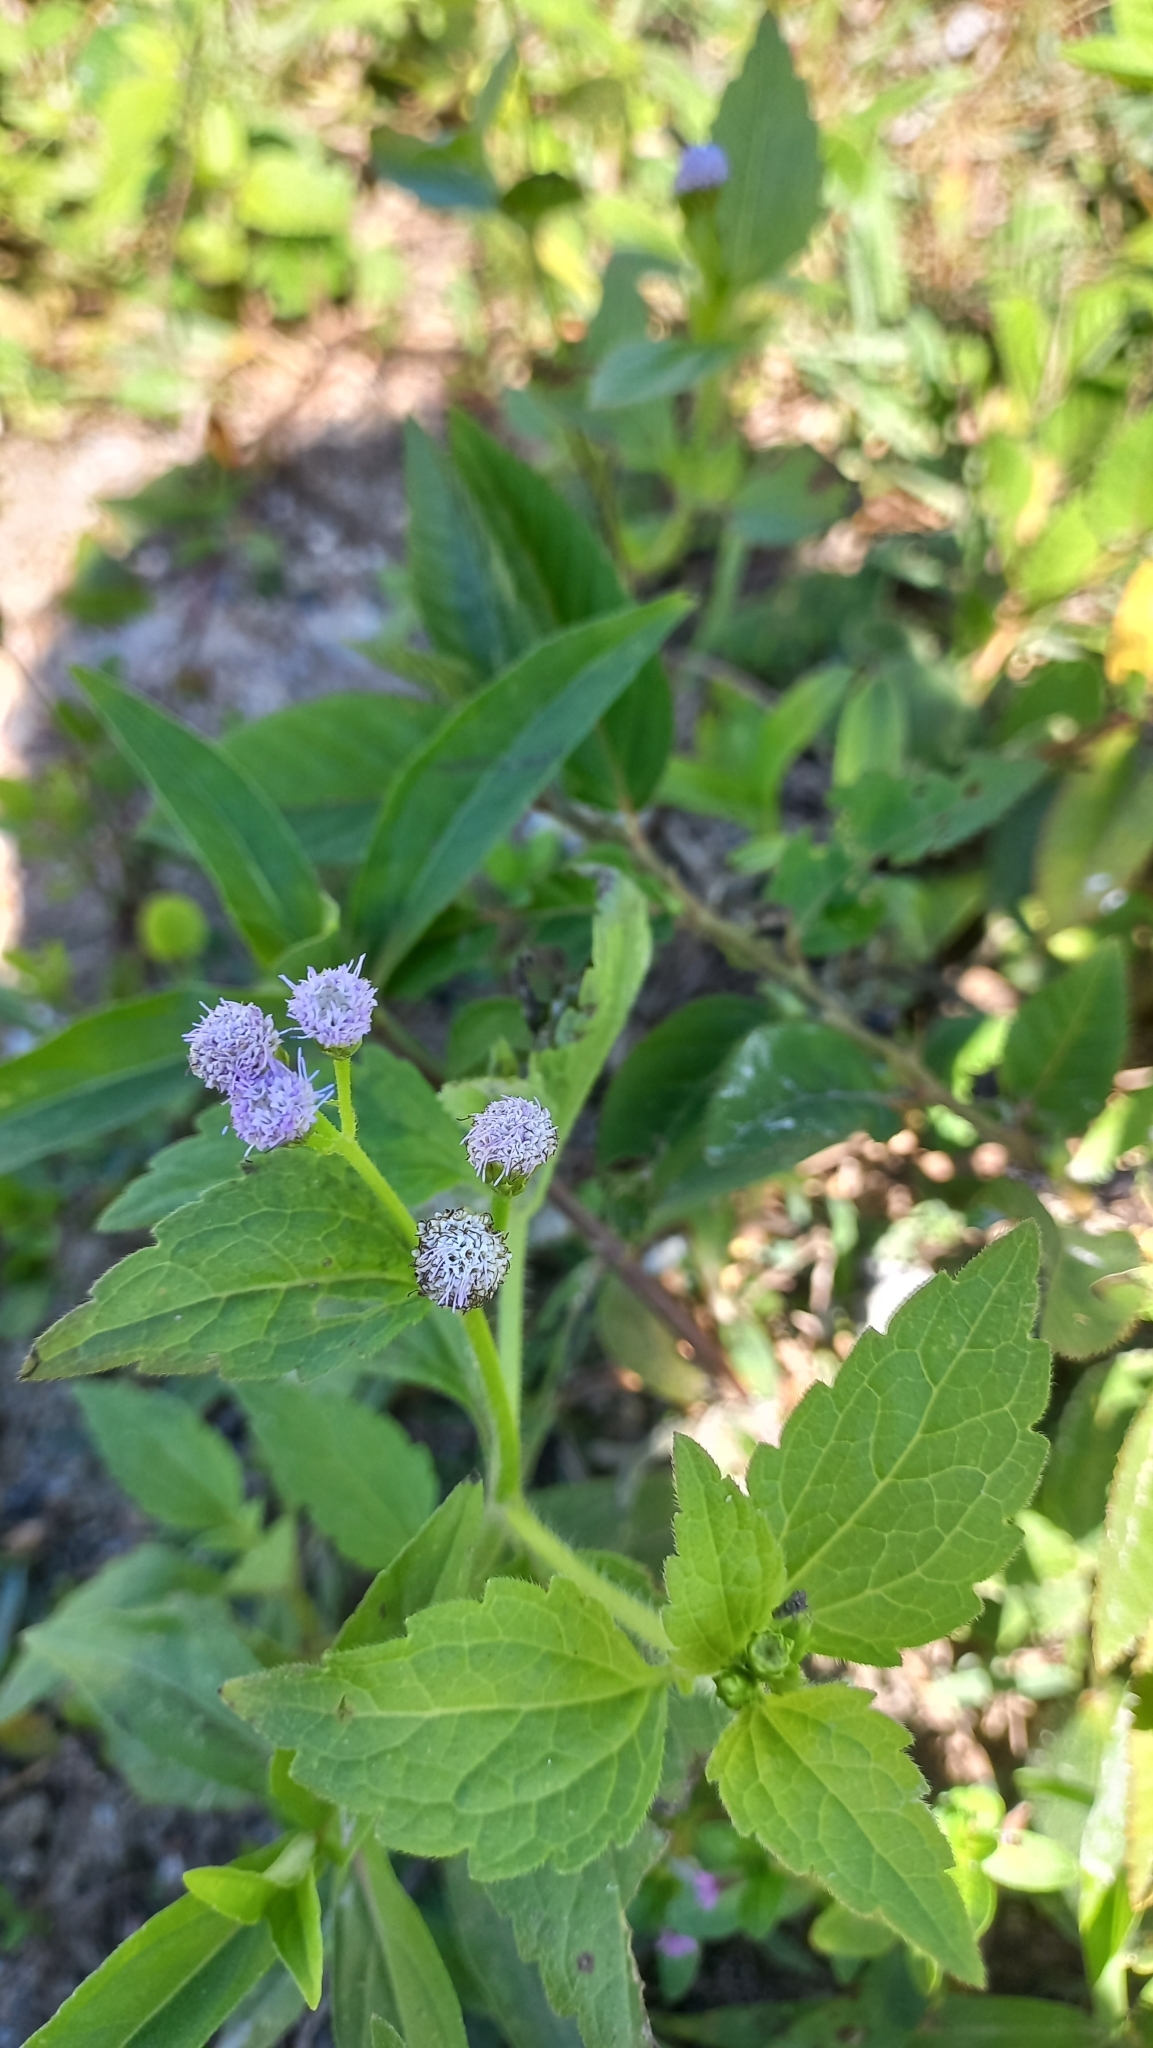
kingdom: Plantae
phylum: Tracheophyta
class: Magnoliopsida
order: Asterales
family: Asteraceae
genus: Praxelis
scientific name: Praxelis clematidea
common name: Praxelis
